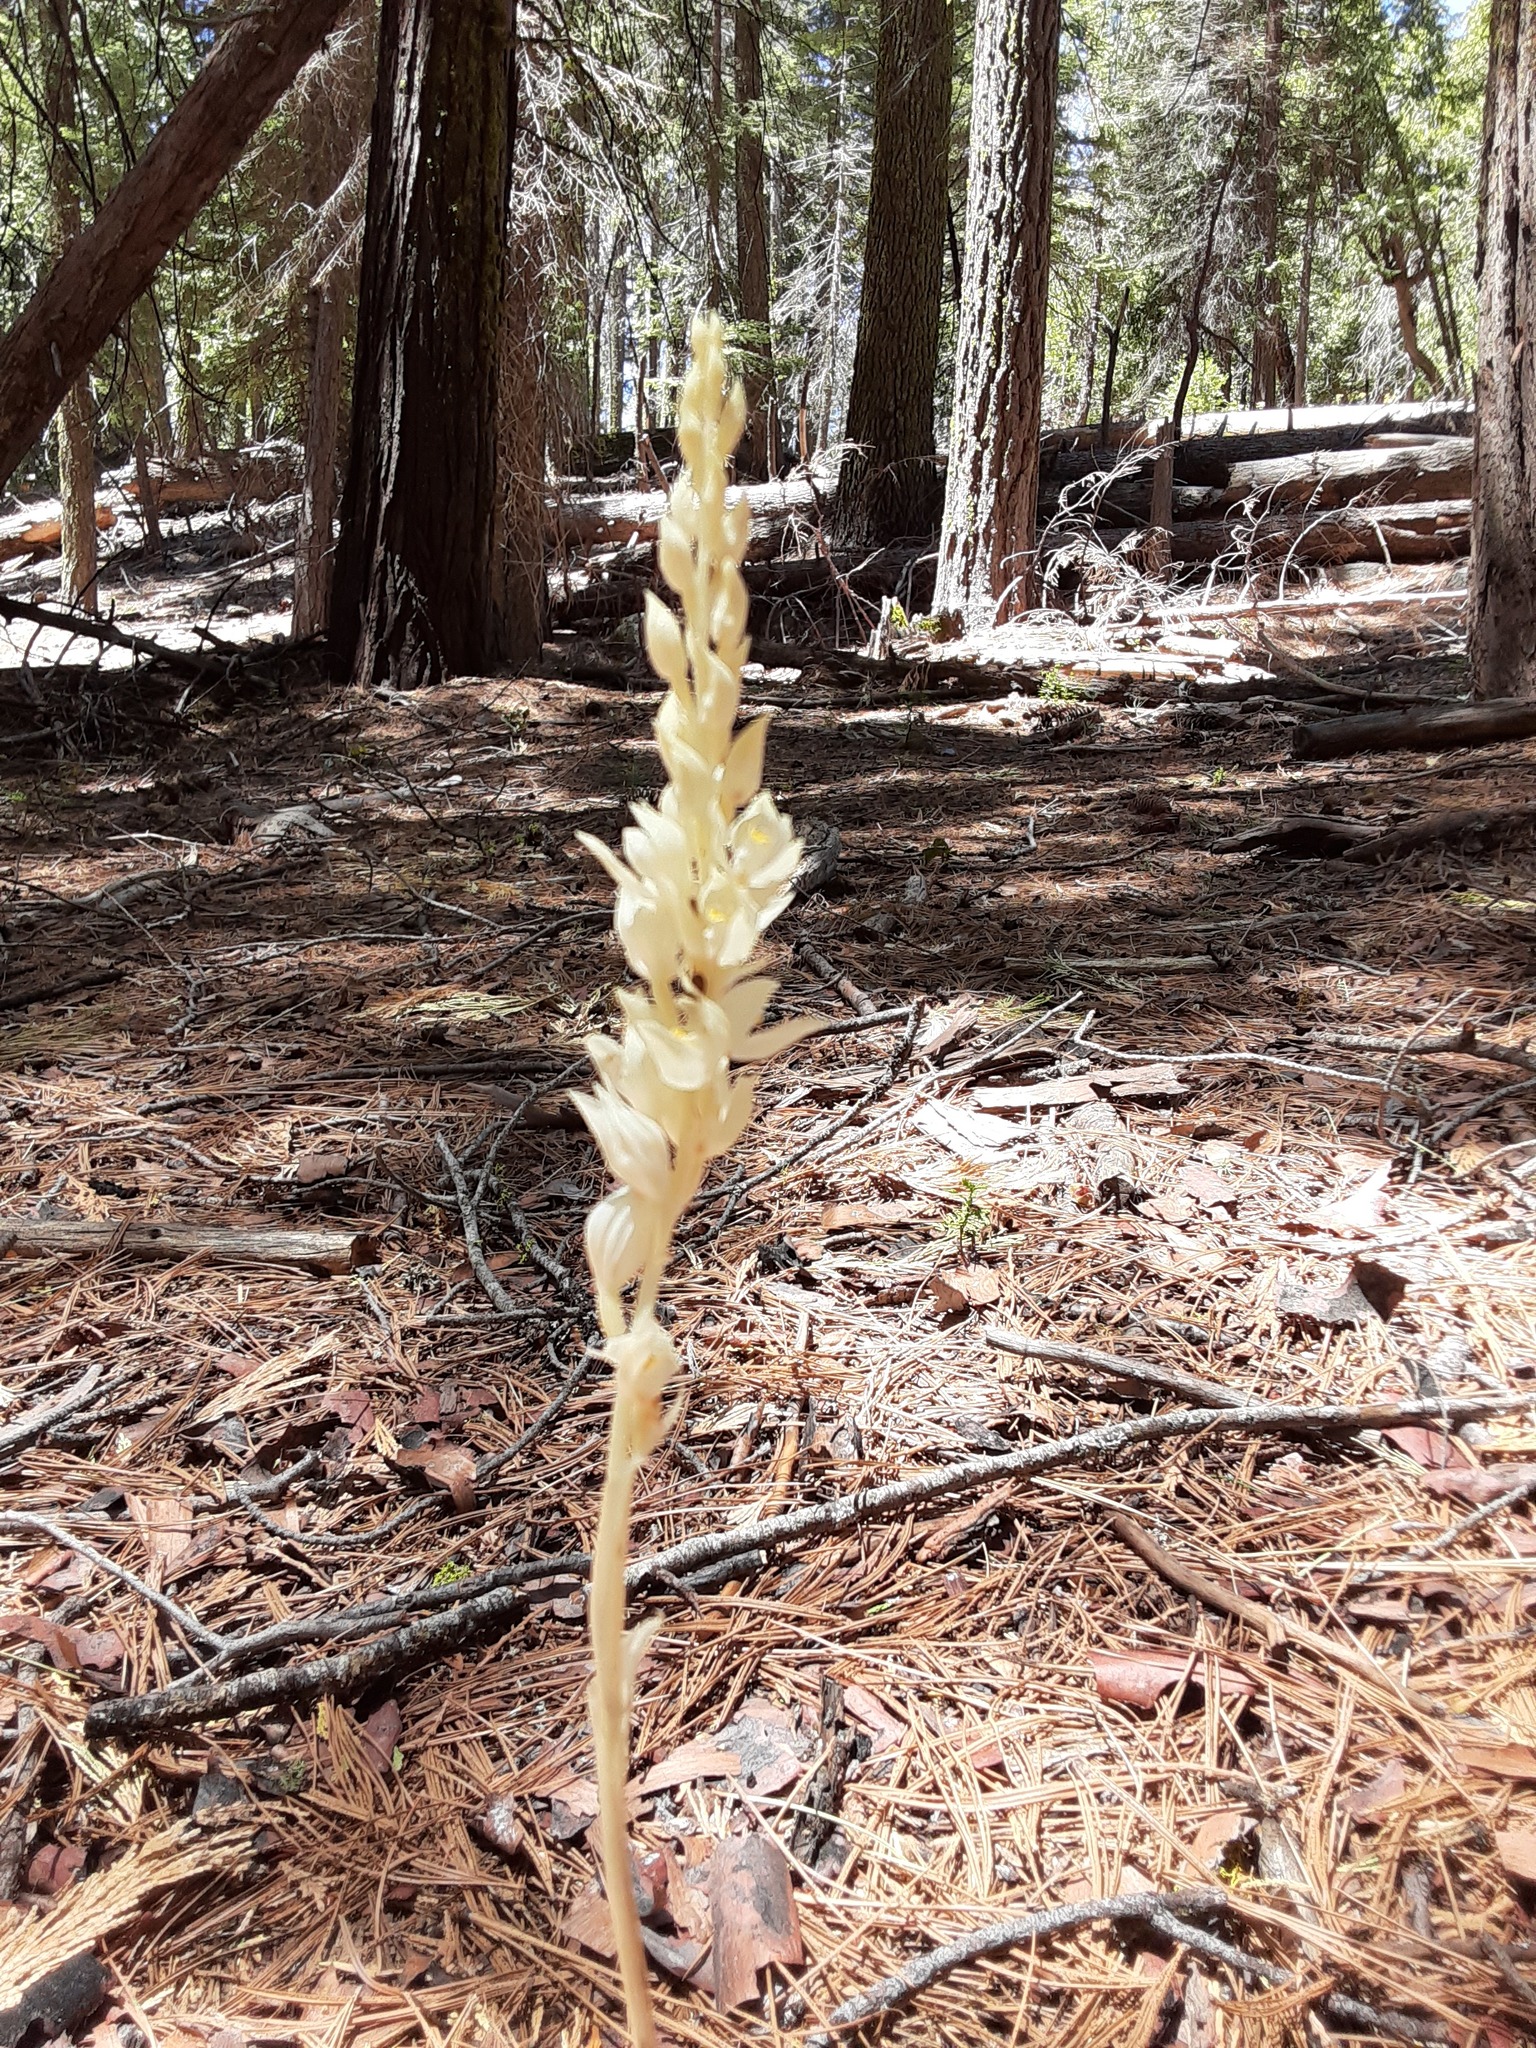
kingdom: Plantae
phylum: Tracheophyta
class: Liliopsida
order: Asparagales
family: Orchidaceae
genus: Cephalanthera
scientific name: Cephalanthera austiniae
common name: Phantom orchid
